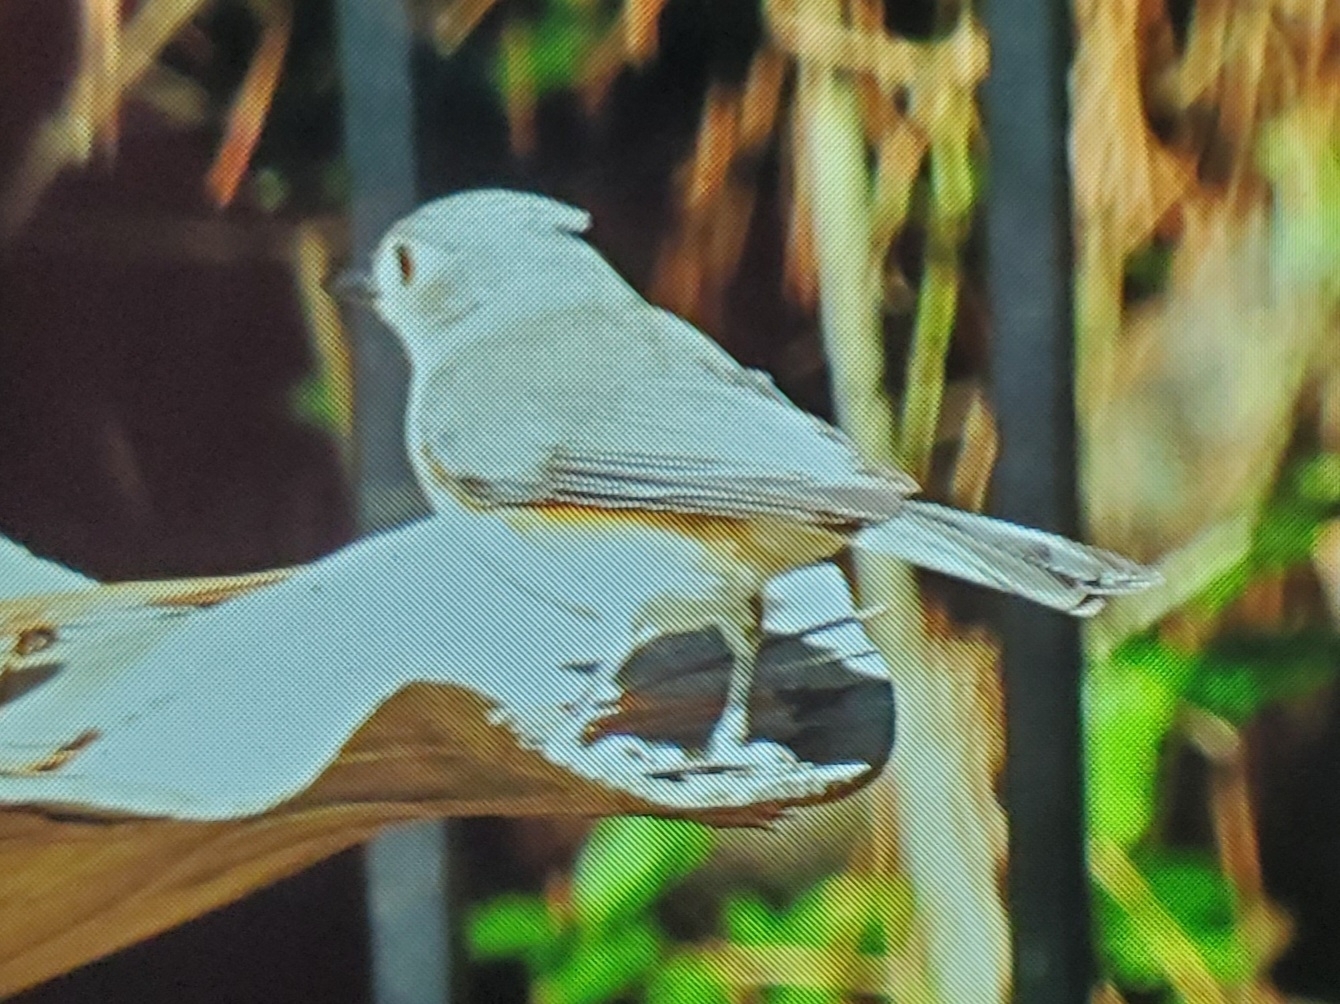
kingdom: Animalia
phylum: Chordata
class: Aves
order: Passeriformes
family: Paridae
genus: Baeolophus
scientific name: Baeolophus bicolor
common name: Tufted titmouse
